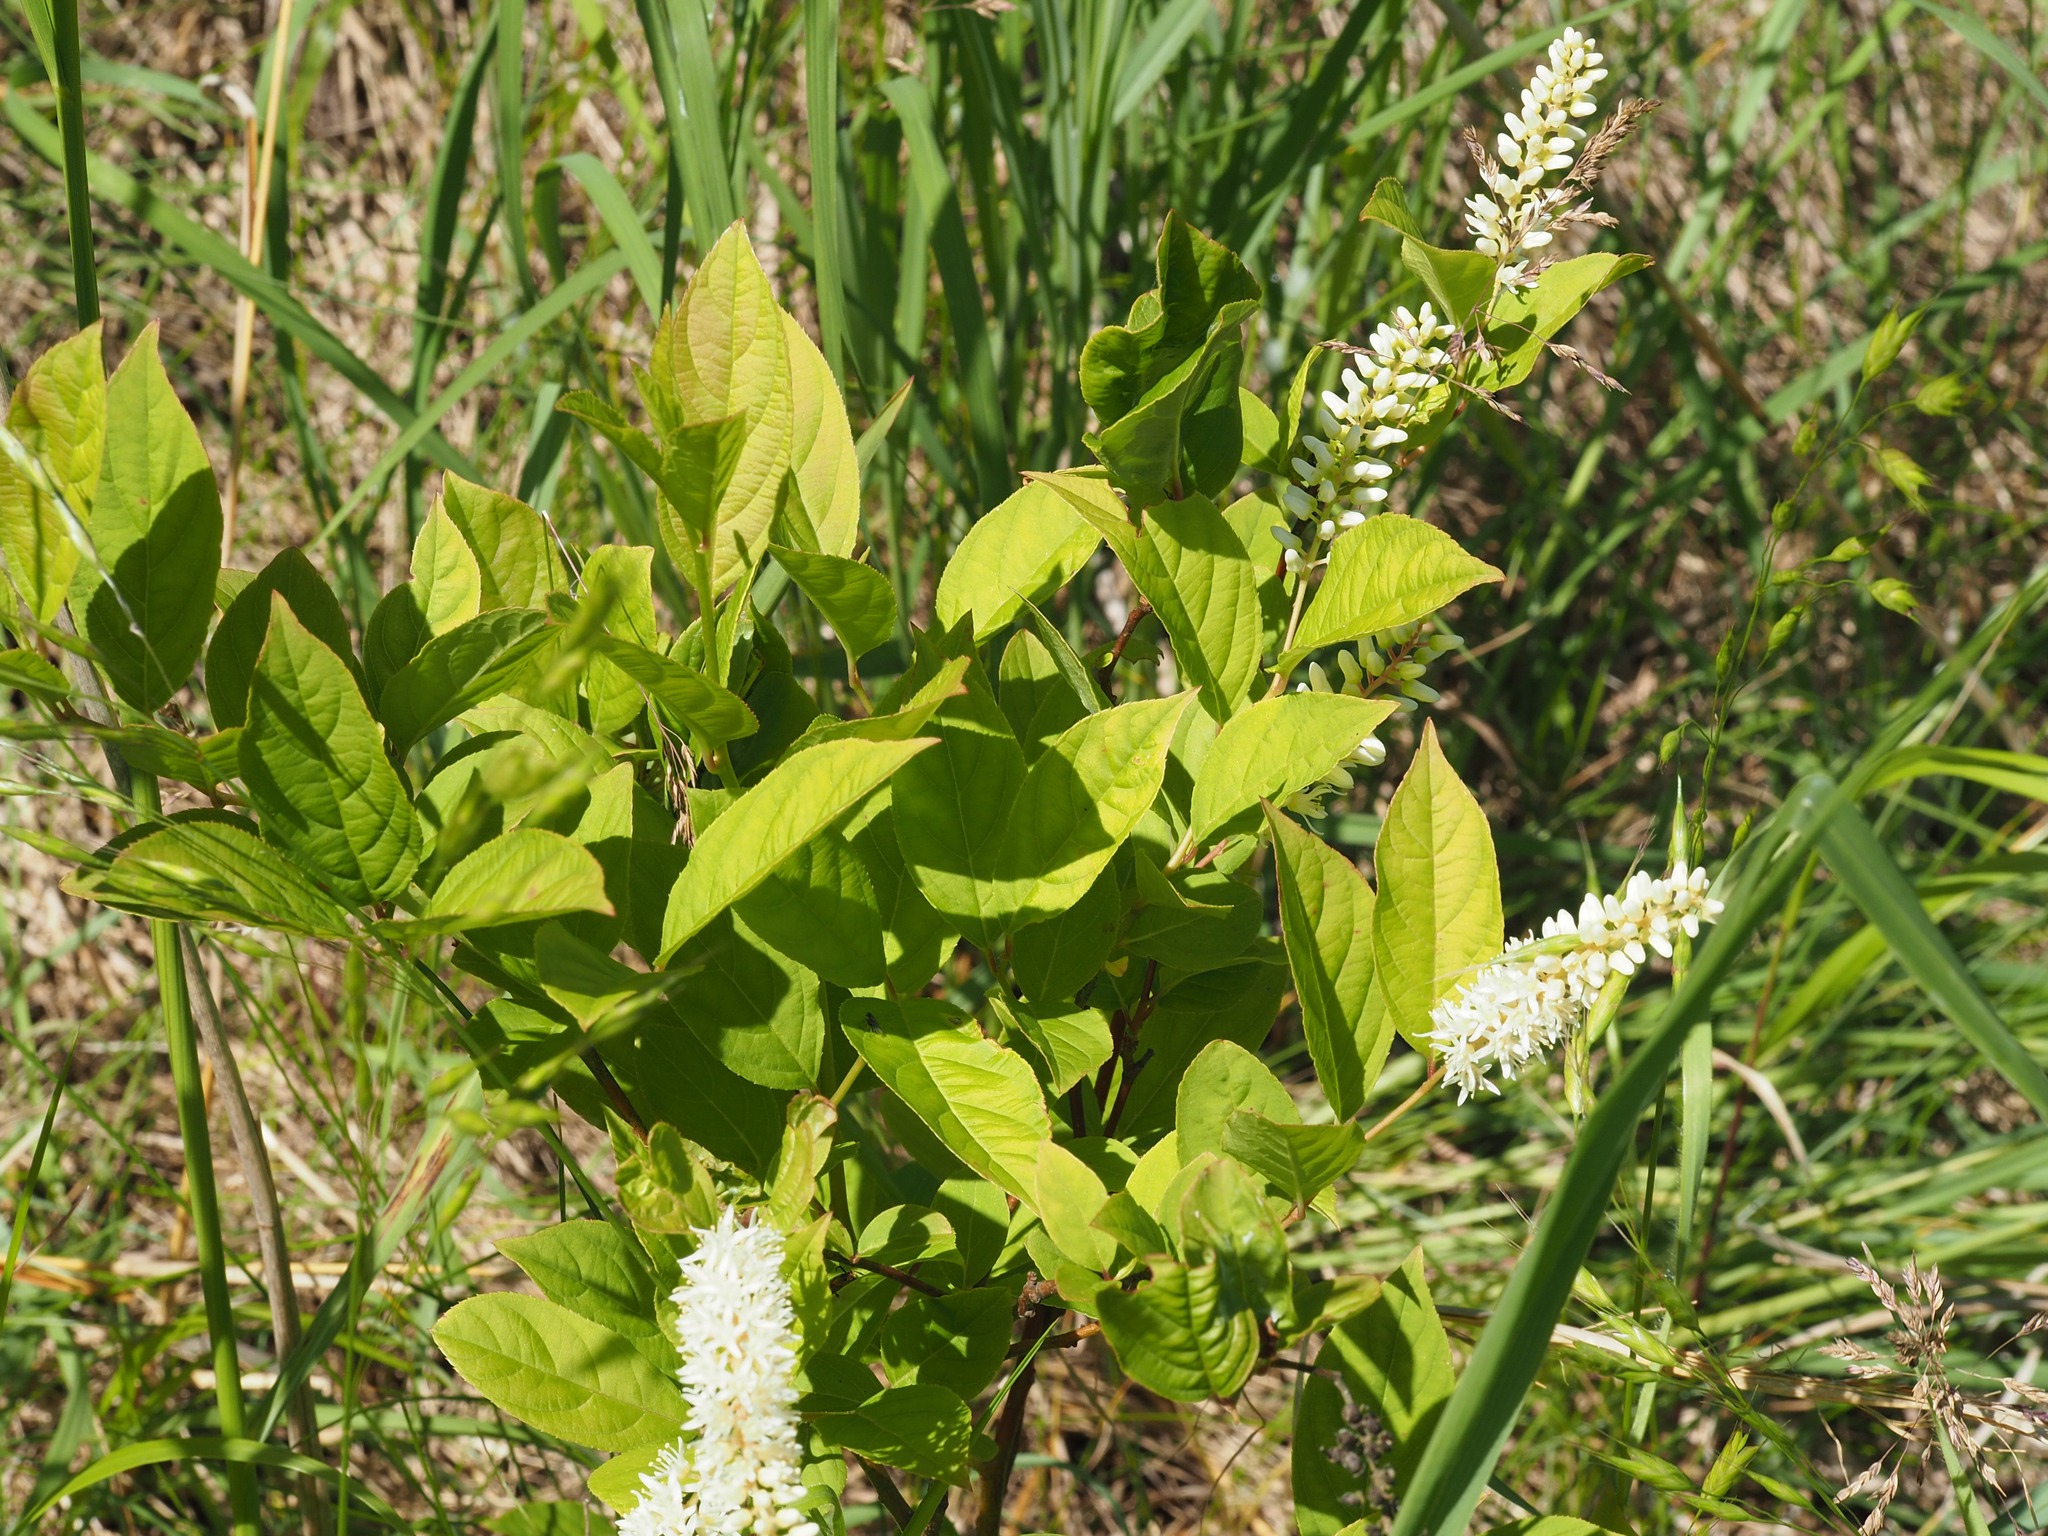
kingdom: Plantae
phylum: Tracheophyta
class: Magnoliopsida
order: Saxifragales
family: Iteaceae
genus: Itea
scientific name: Itea virginica
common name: Sweetspire
